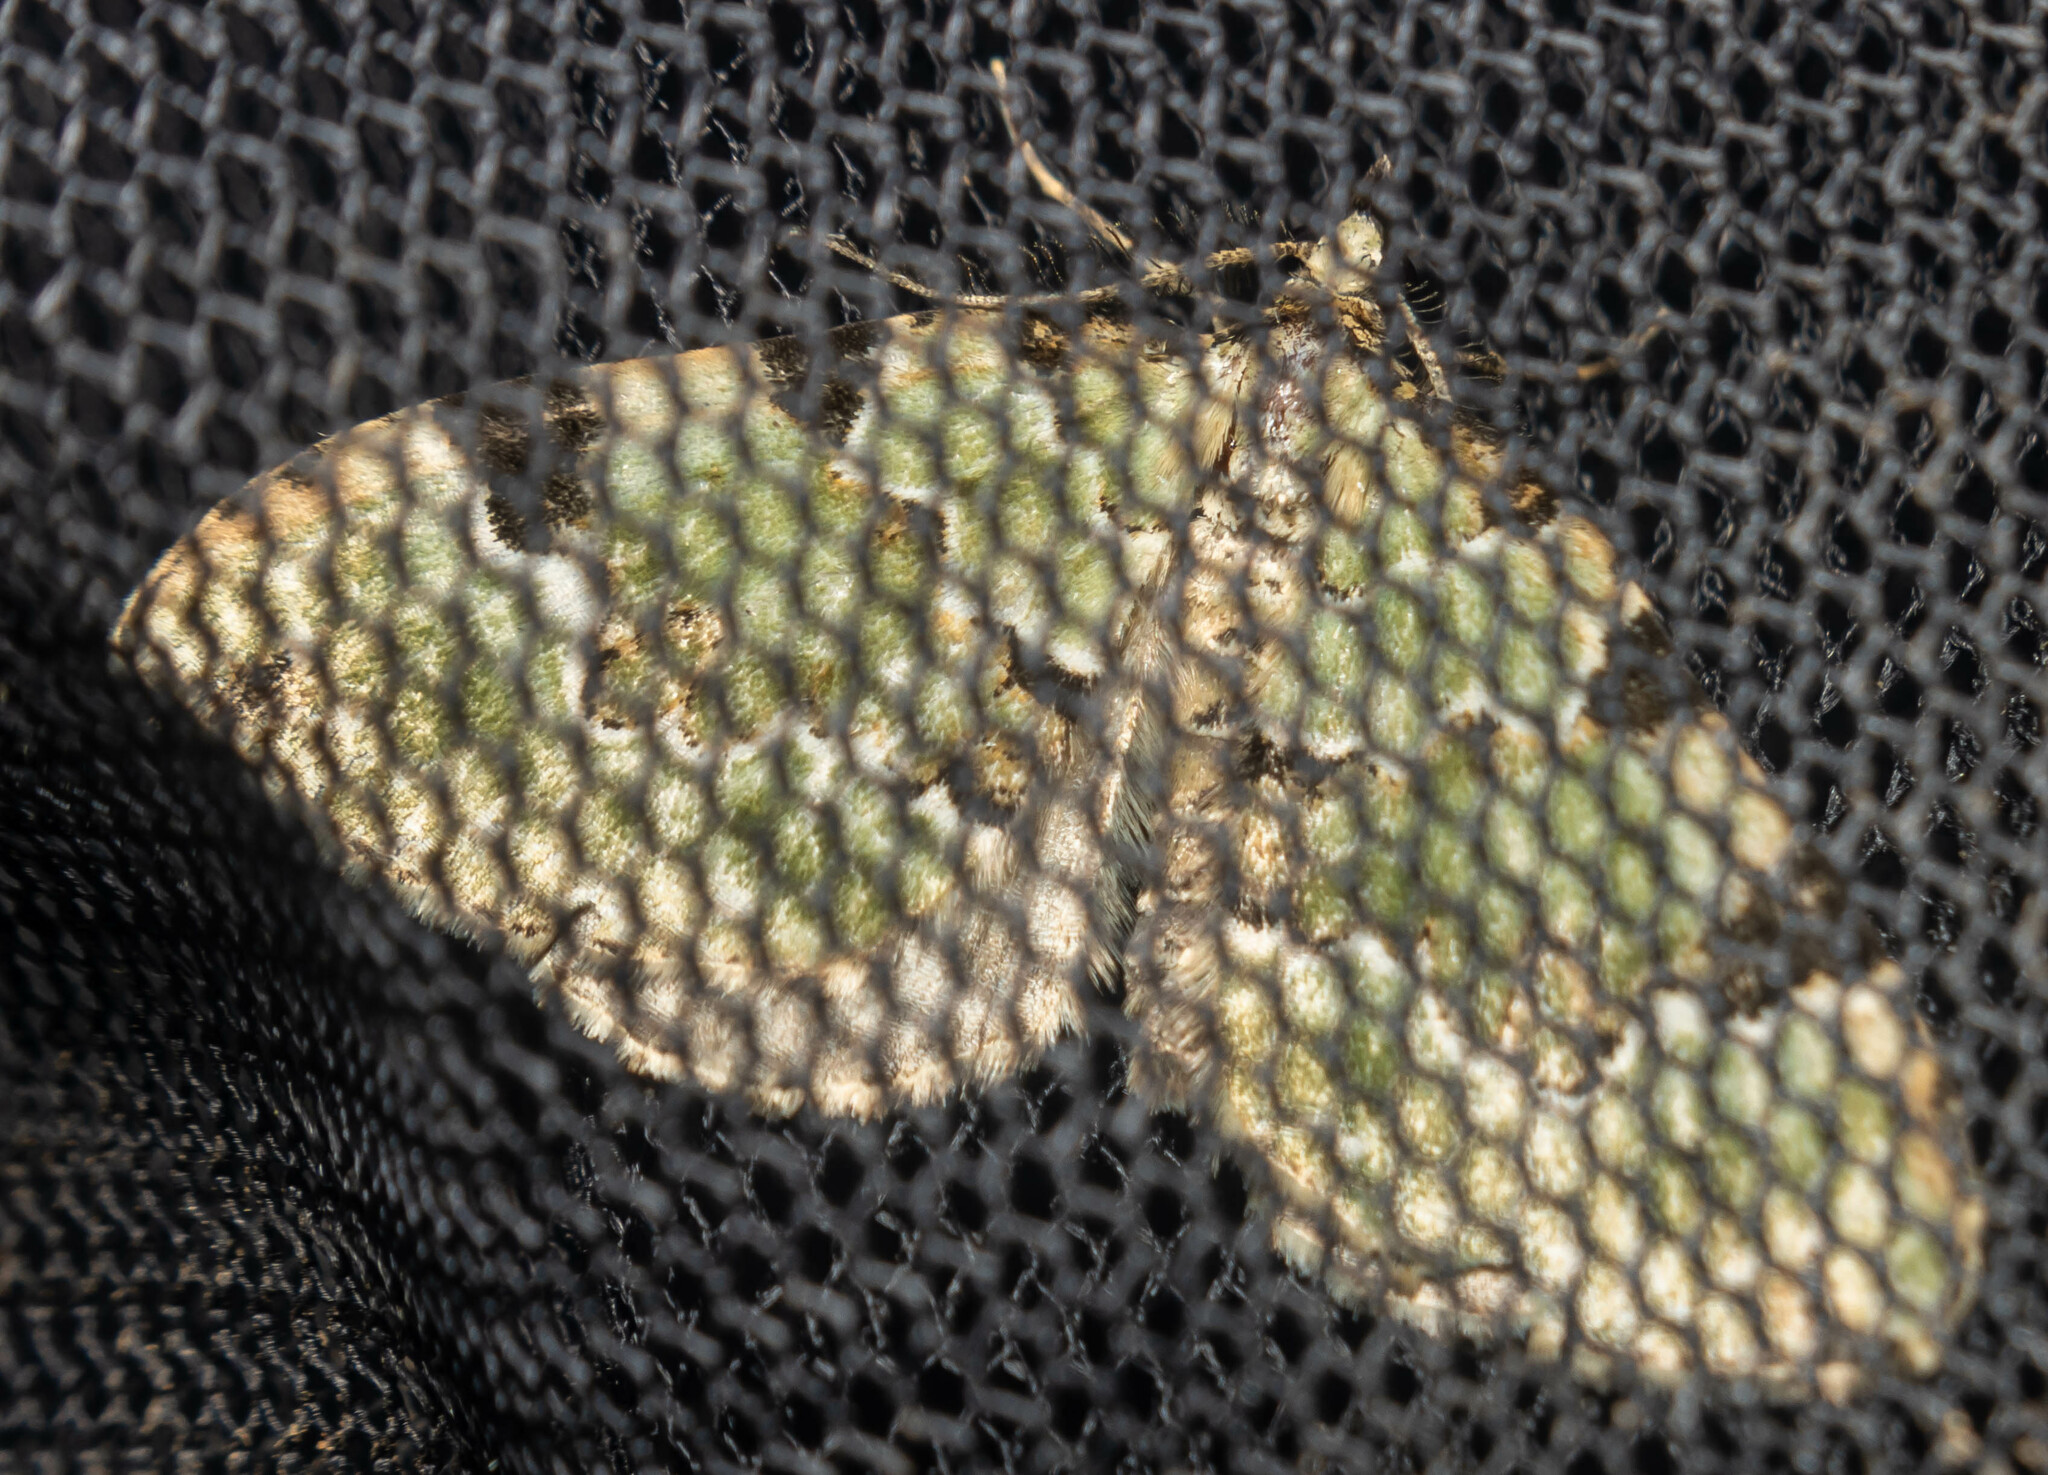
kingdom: Animalia
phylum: Arthropoda
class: Insecta
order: Lepidoptera
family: Geometridae
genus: Colostygia
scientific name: Colostygia pectinataria
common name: Green carpet
